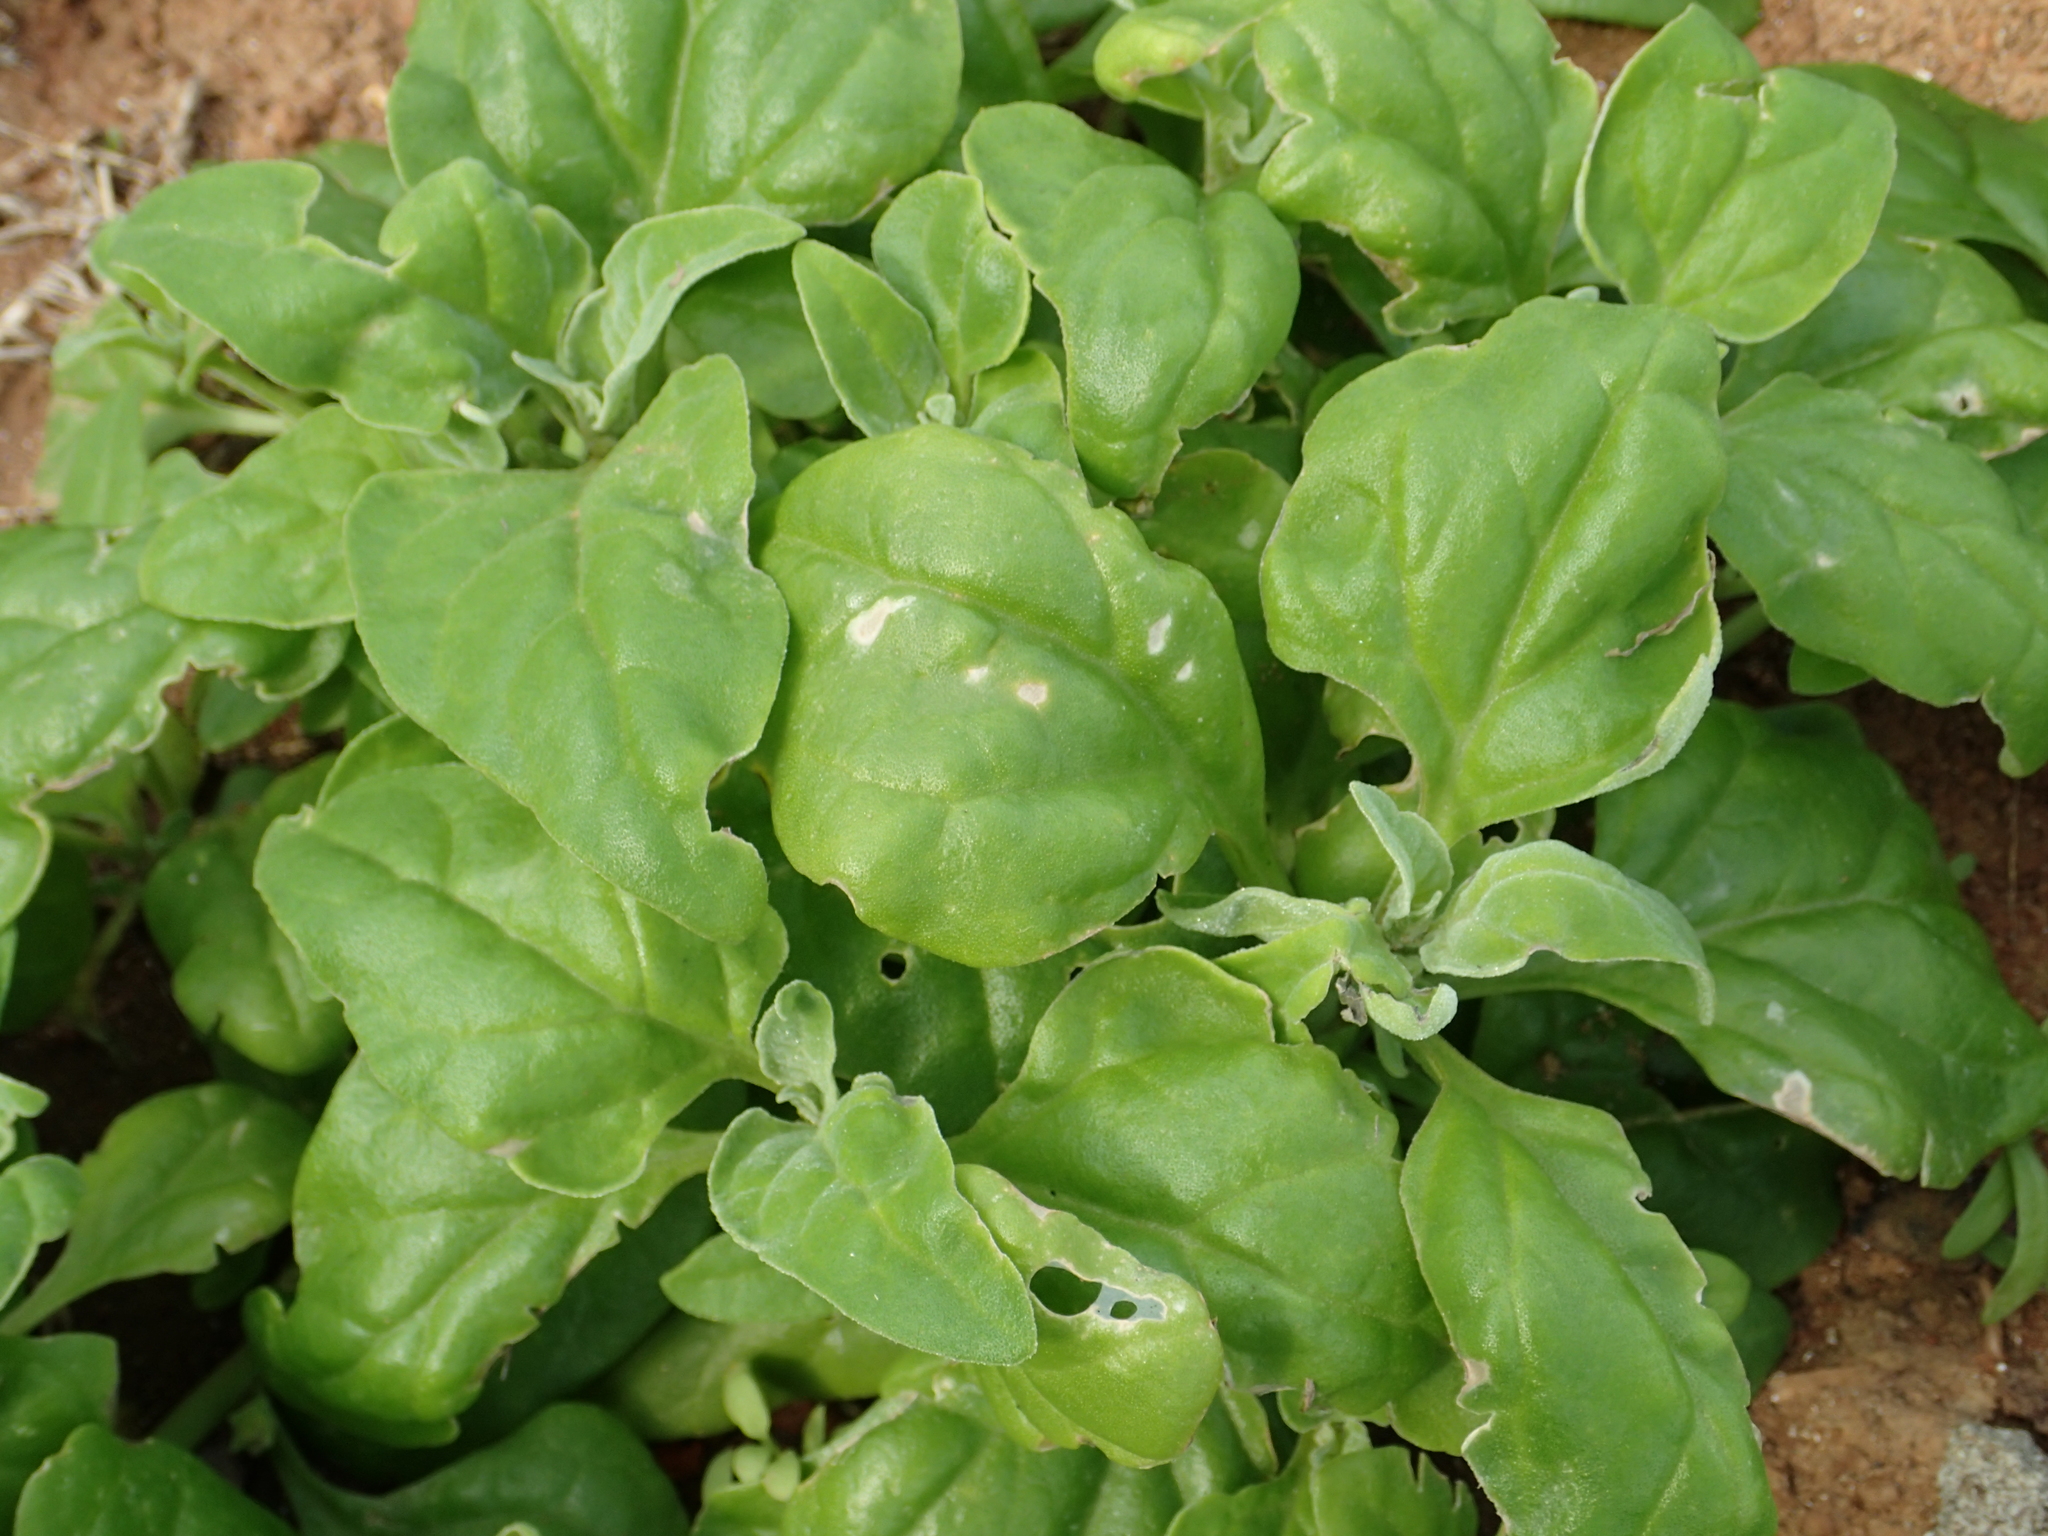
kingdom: Plantae
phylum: Tracheophyta
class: Magnoliopsida
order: Caryophyllales
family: Aizoaceae
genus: Tetragonia
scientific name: Tetragonia tetragonoides
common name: New zealand-spinach
